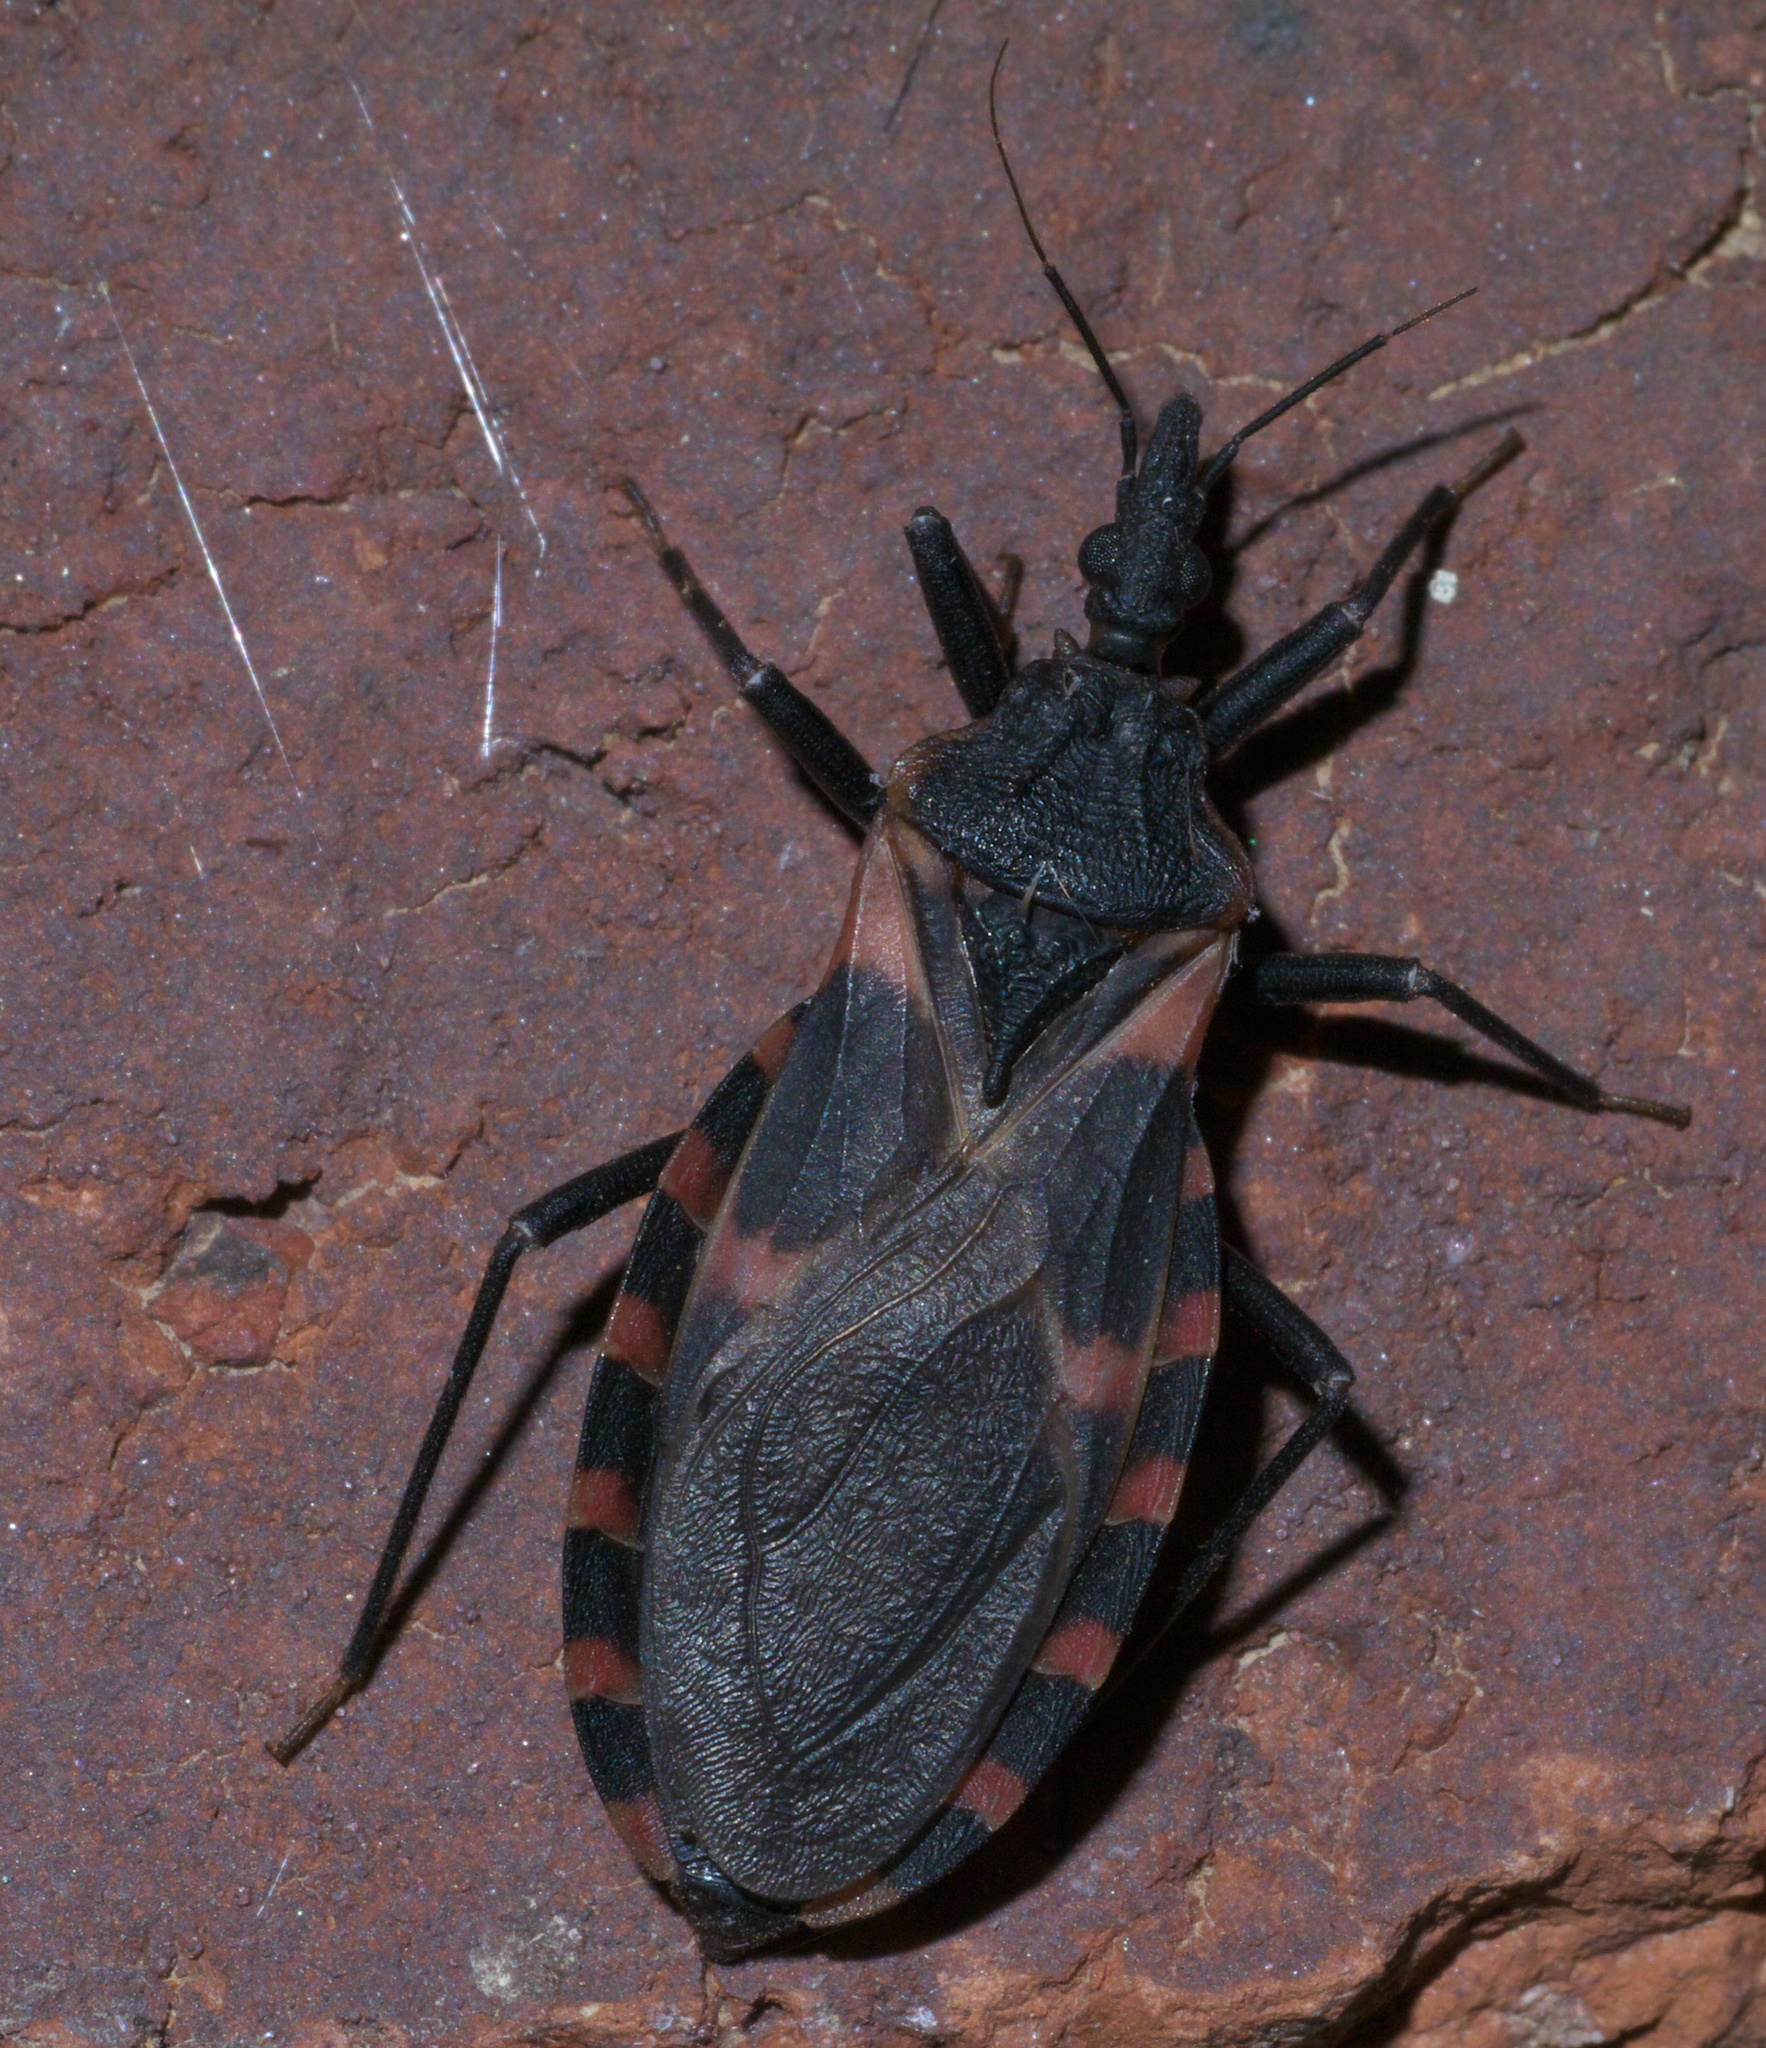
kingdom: Animalia
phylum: Arthropoda
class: Insecta
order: Hemiptera
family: Reduviidae
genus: Triatoma
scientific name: Triatoma sanguisuga
